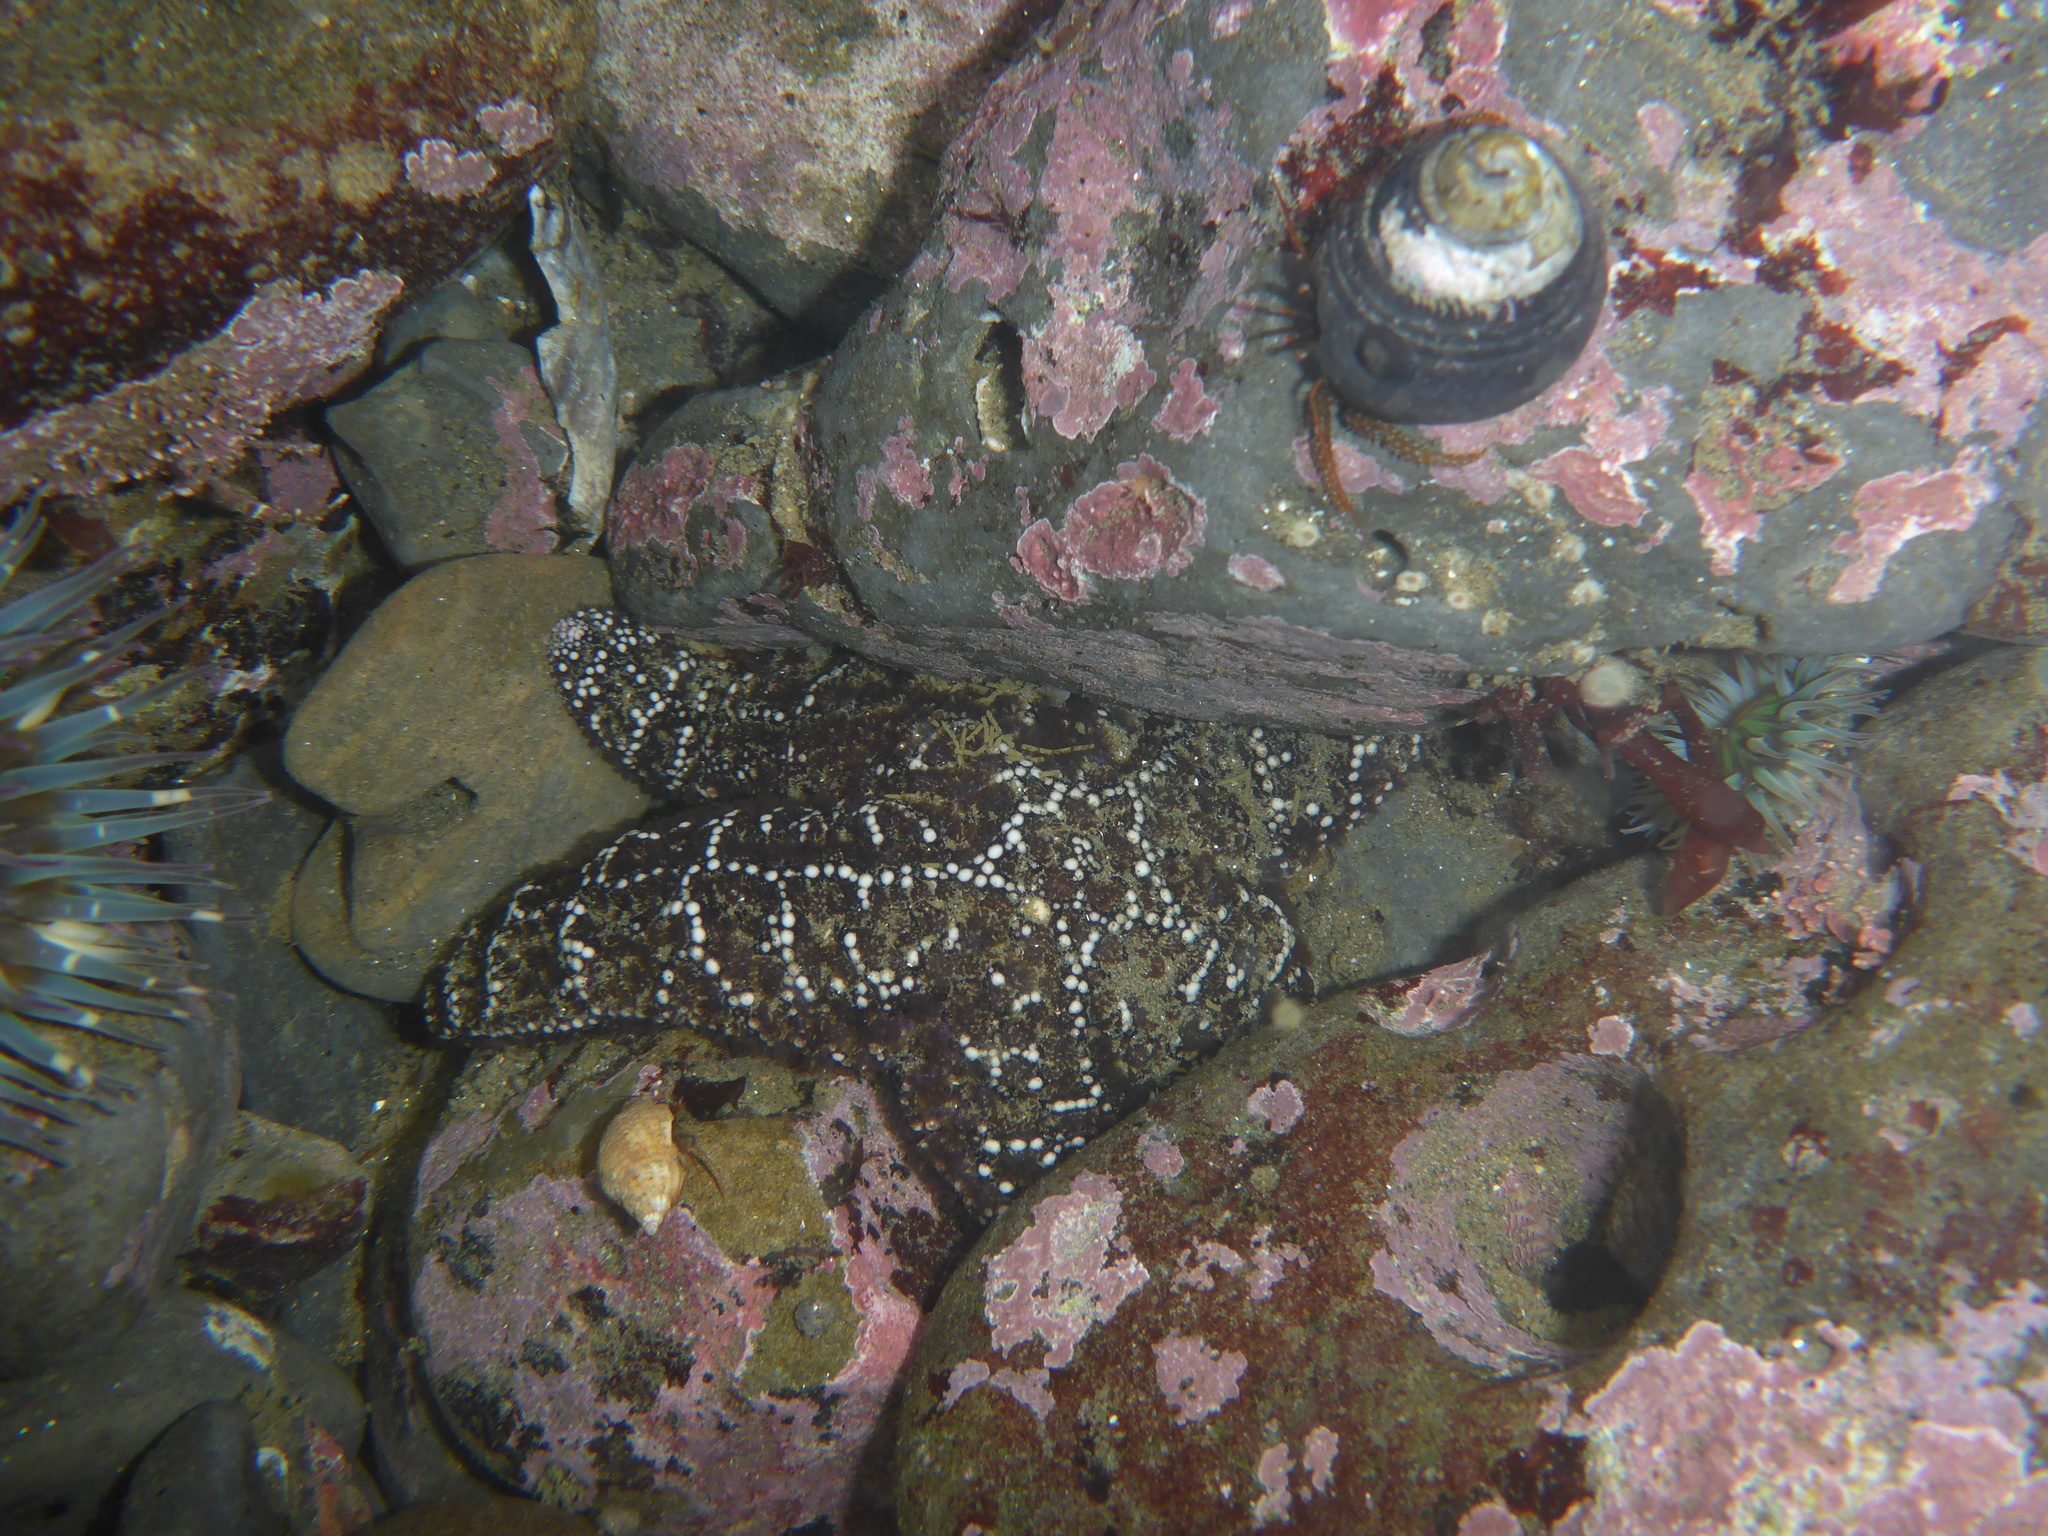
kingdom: Animalia
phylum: Echinodermata
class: Asteroidea
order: Forcipulatida
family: Asteriidae
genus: Pisaster
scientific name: Pisaster ochraceus
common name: Ochre stars
